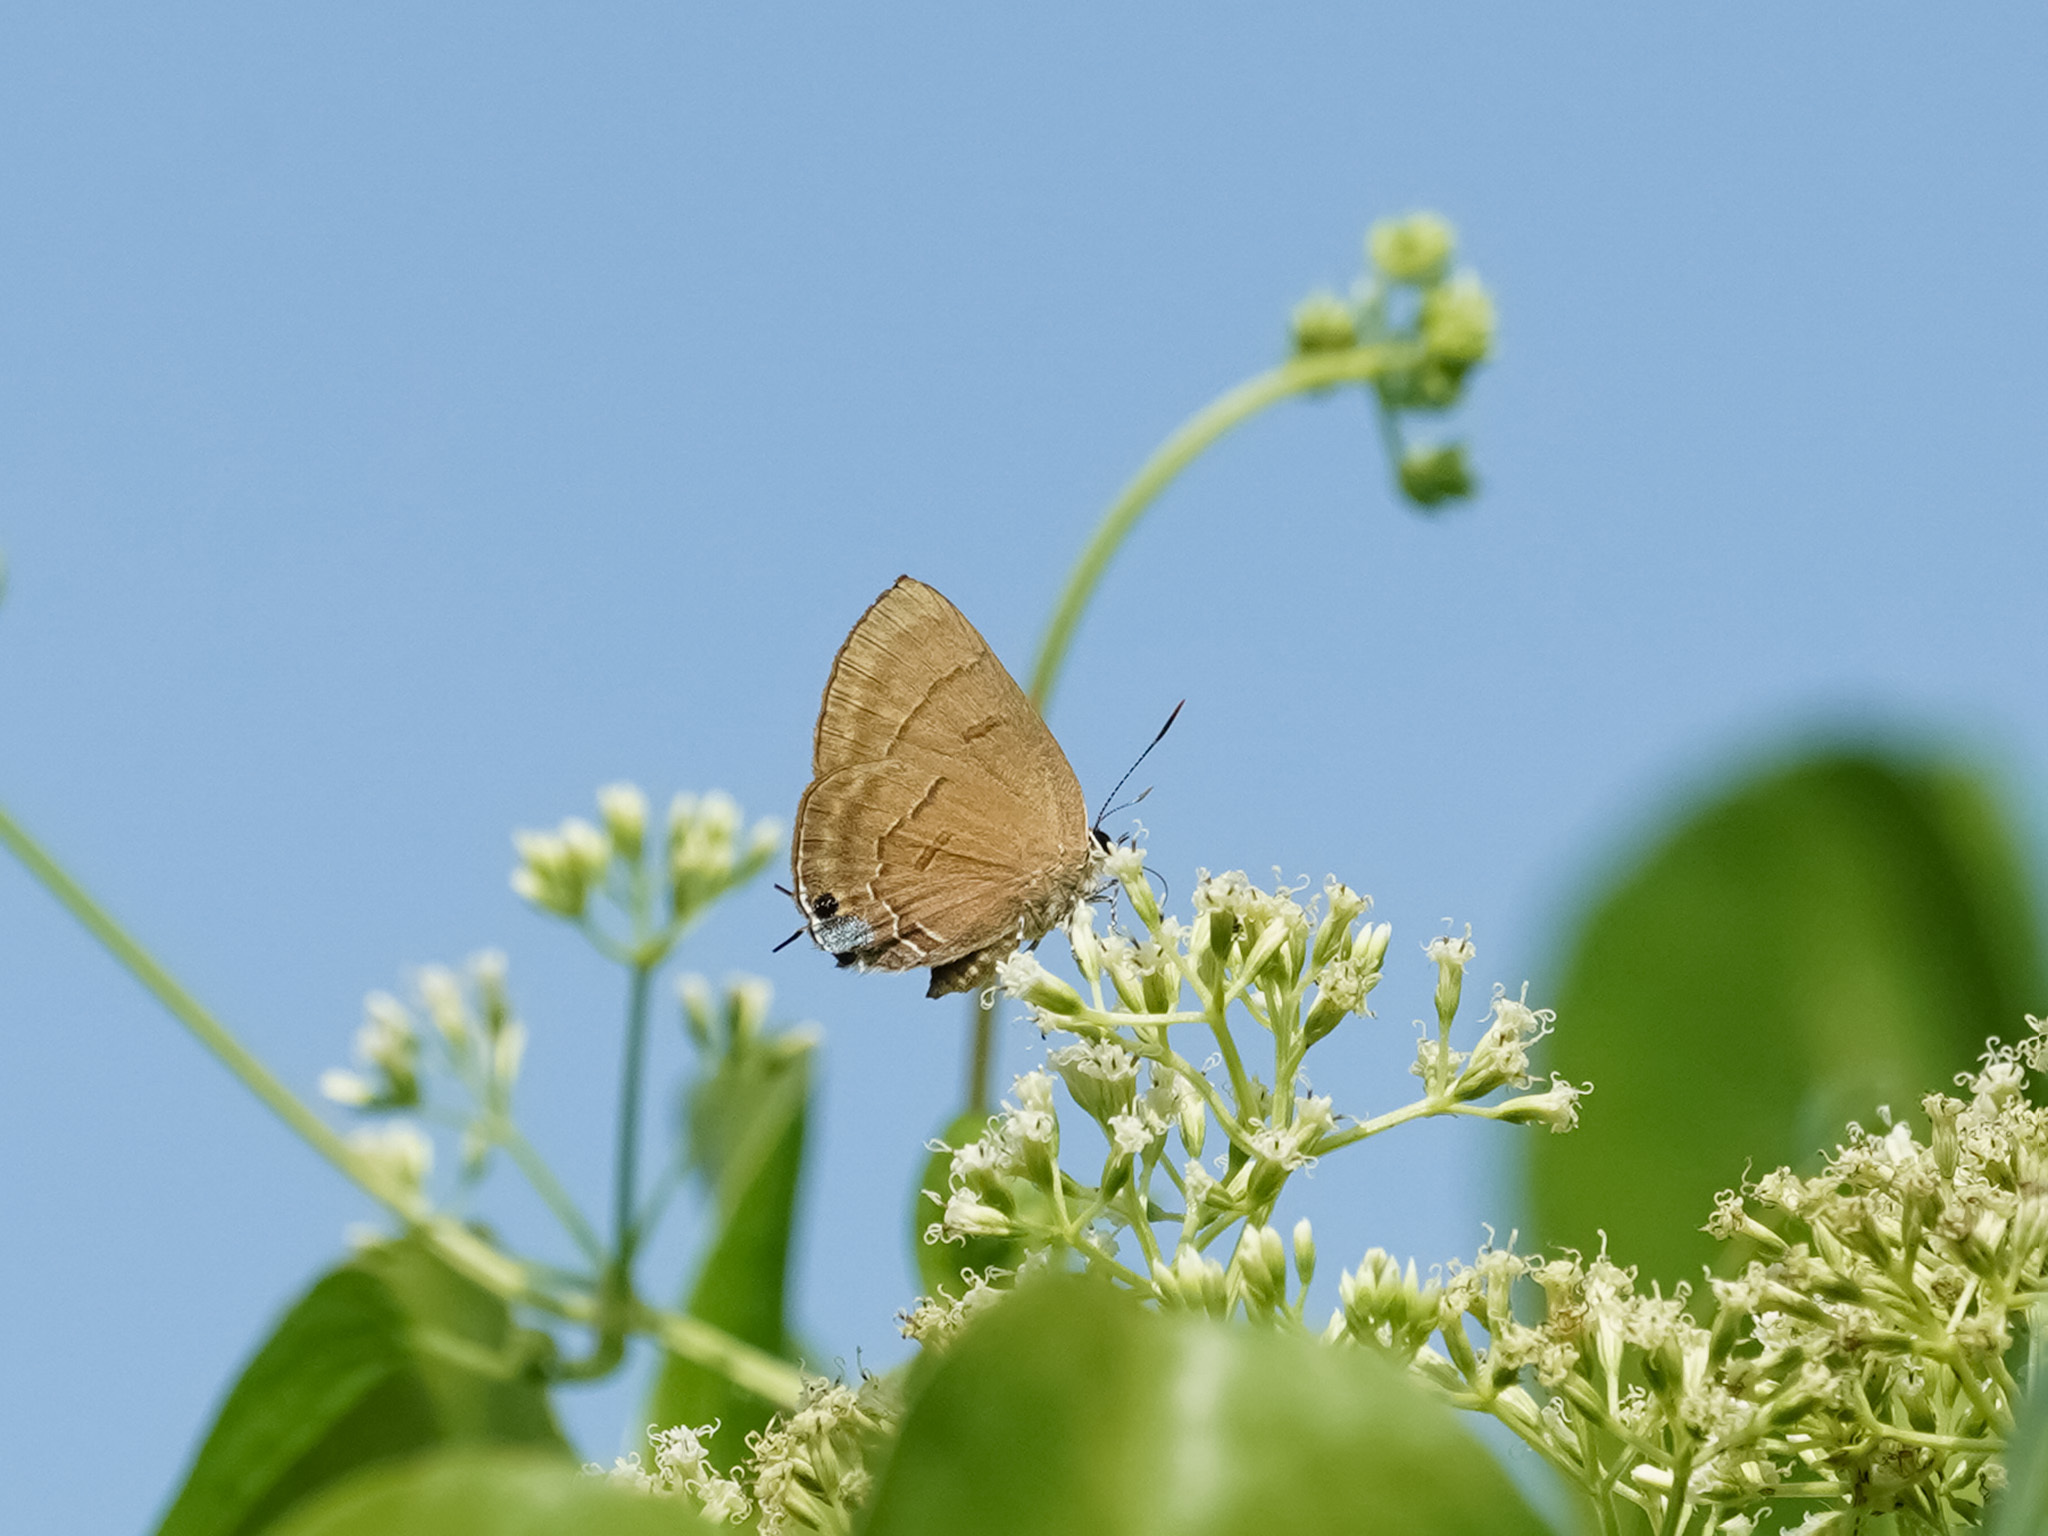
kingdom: Animalia
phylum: Arthropoda
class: Insecta
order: Lepidoptera
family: Lycaenidae
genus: Rapala
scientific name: Rapala pheretima
